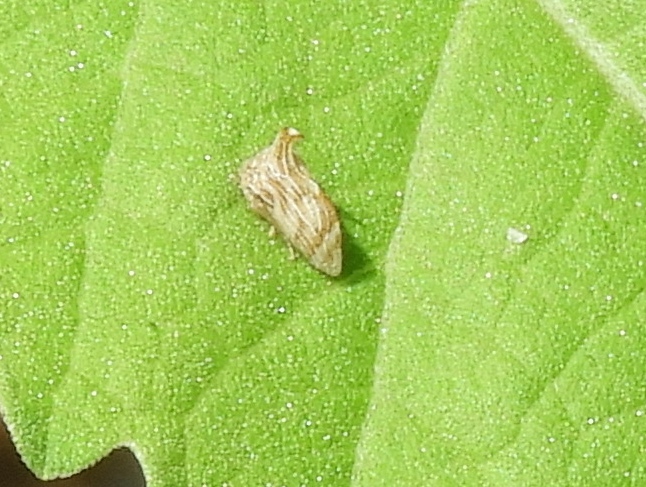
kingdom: Animalia
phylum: Arthropoda
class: Insecta
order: Hemiptera
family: Membracidae
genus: Entylia
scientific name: Entylia
